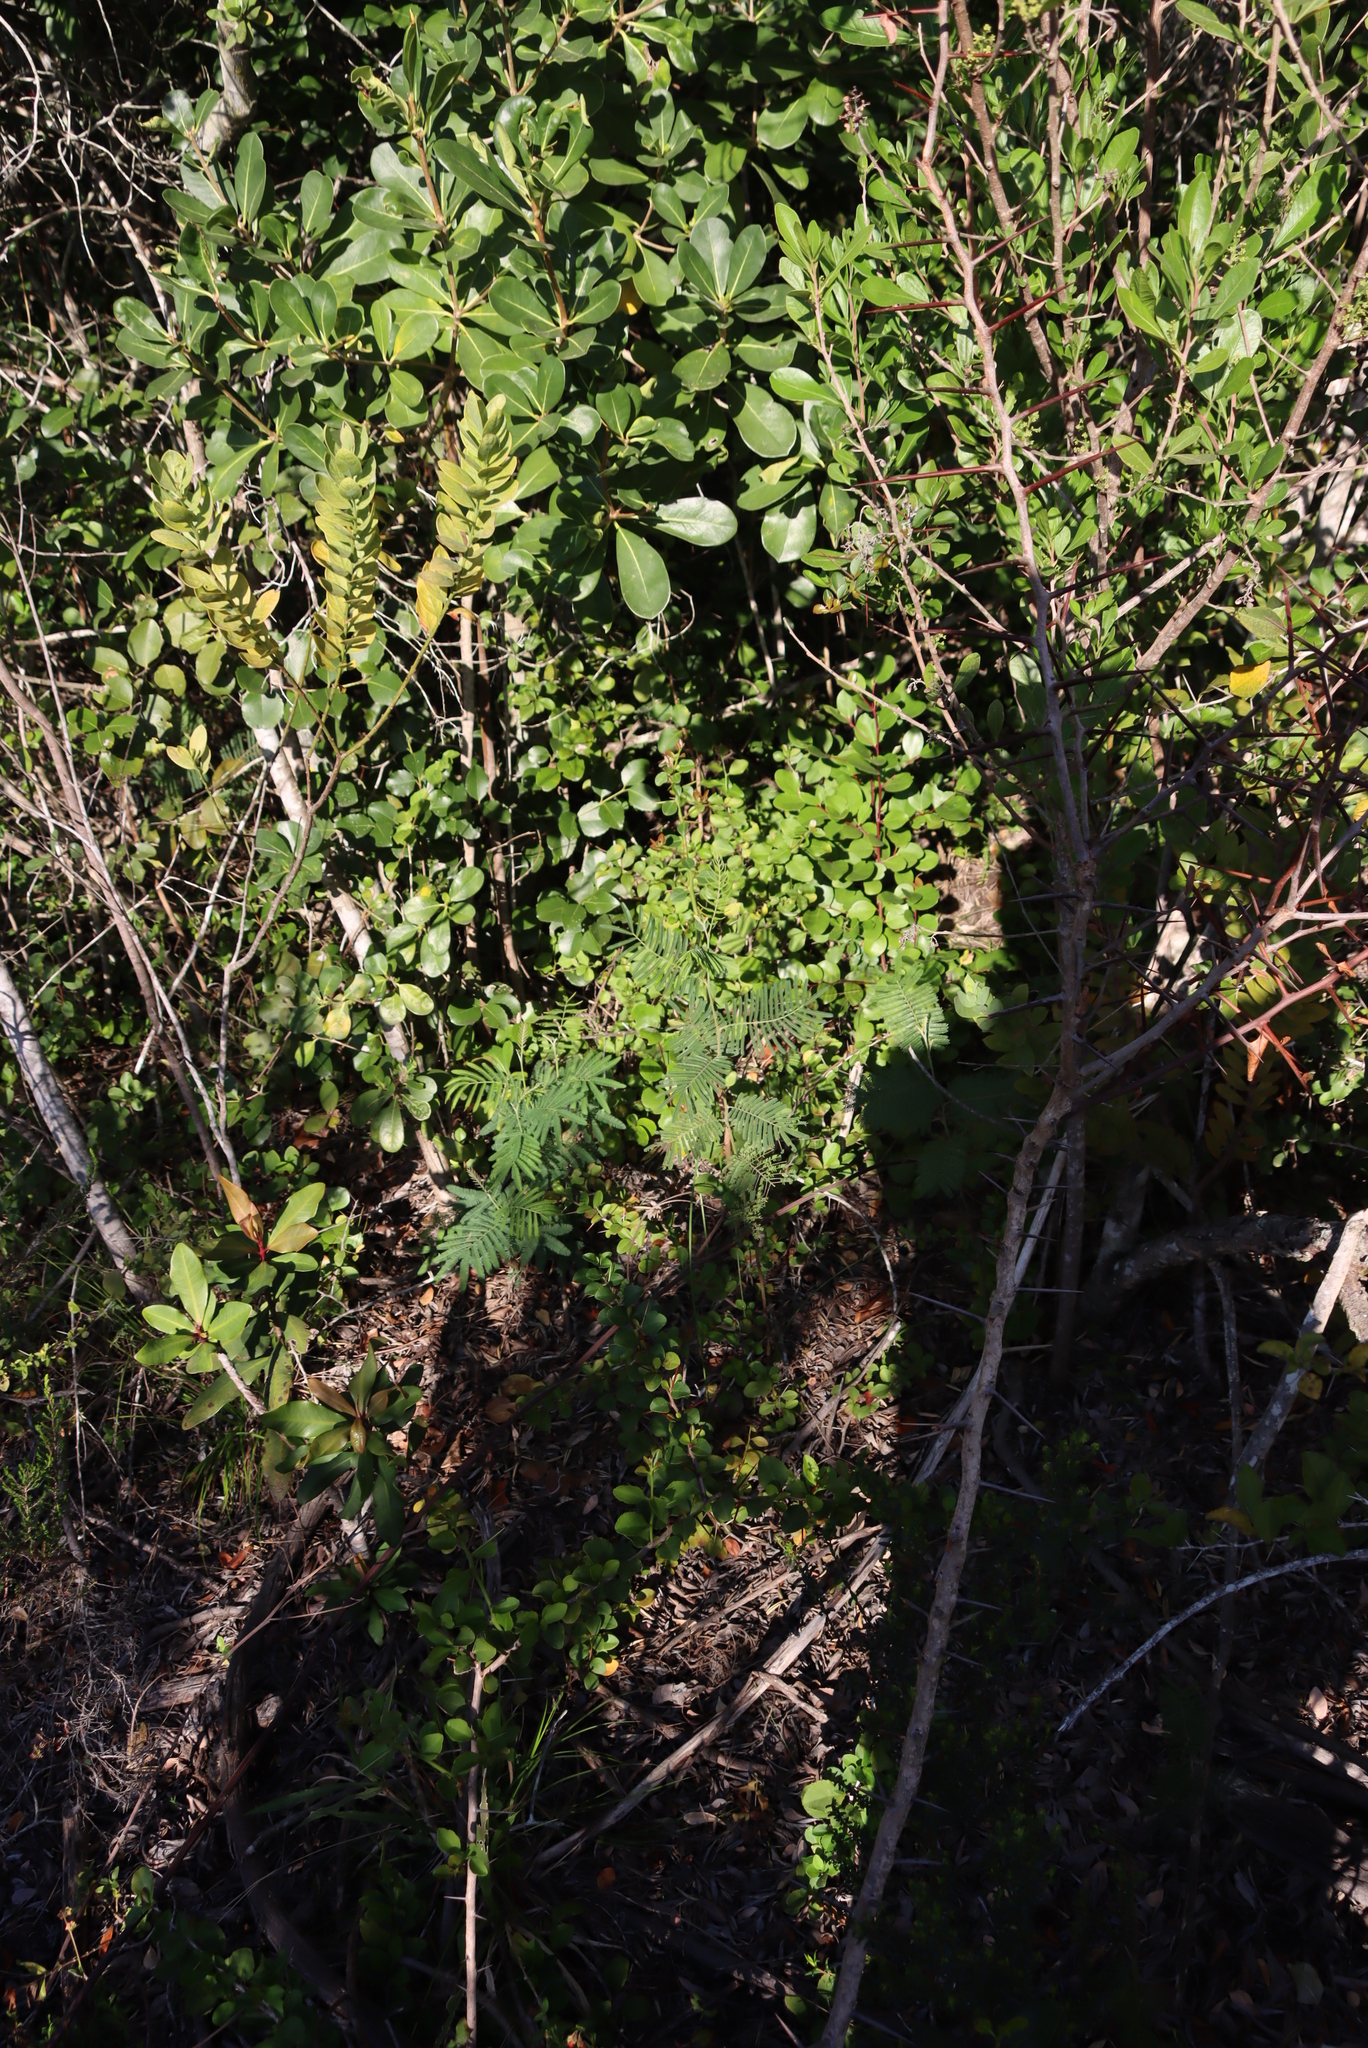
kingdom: Plantae
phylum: Tracheophyta
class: Magnoliopsida
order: Fabales
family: Fabaceae
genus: Acacia
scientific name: Acacia mearnsii
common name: Black wattle
